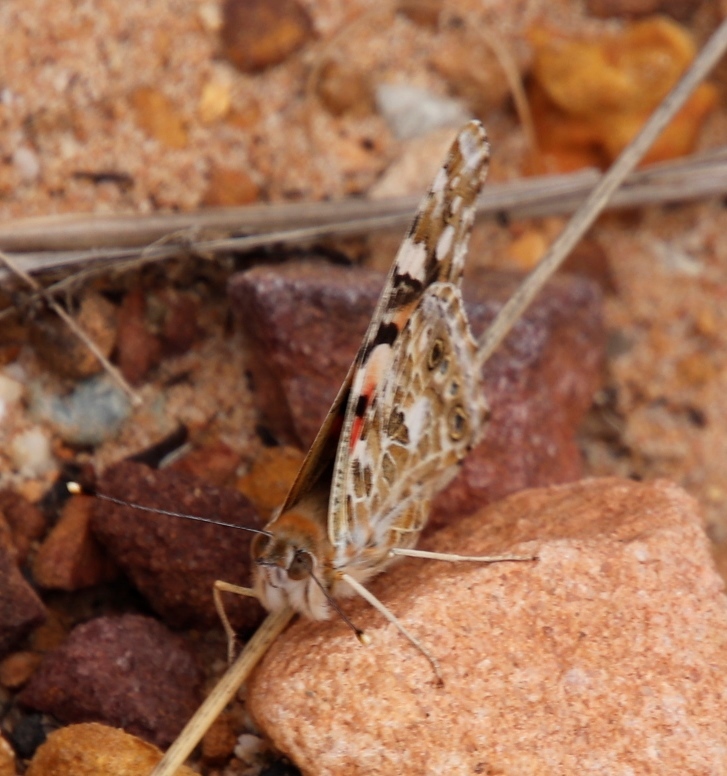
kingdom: Animalia
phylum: Arthropoda
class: Insecta
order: Lepidoptera
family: Nymphalidae
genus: Vanessa
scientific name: Vanessa cardui
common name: Painted lady
